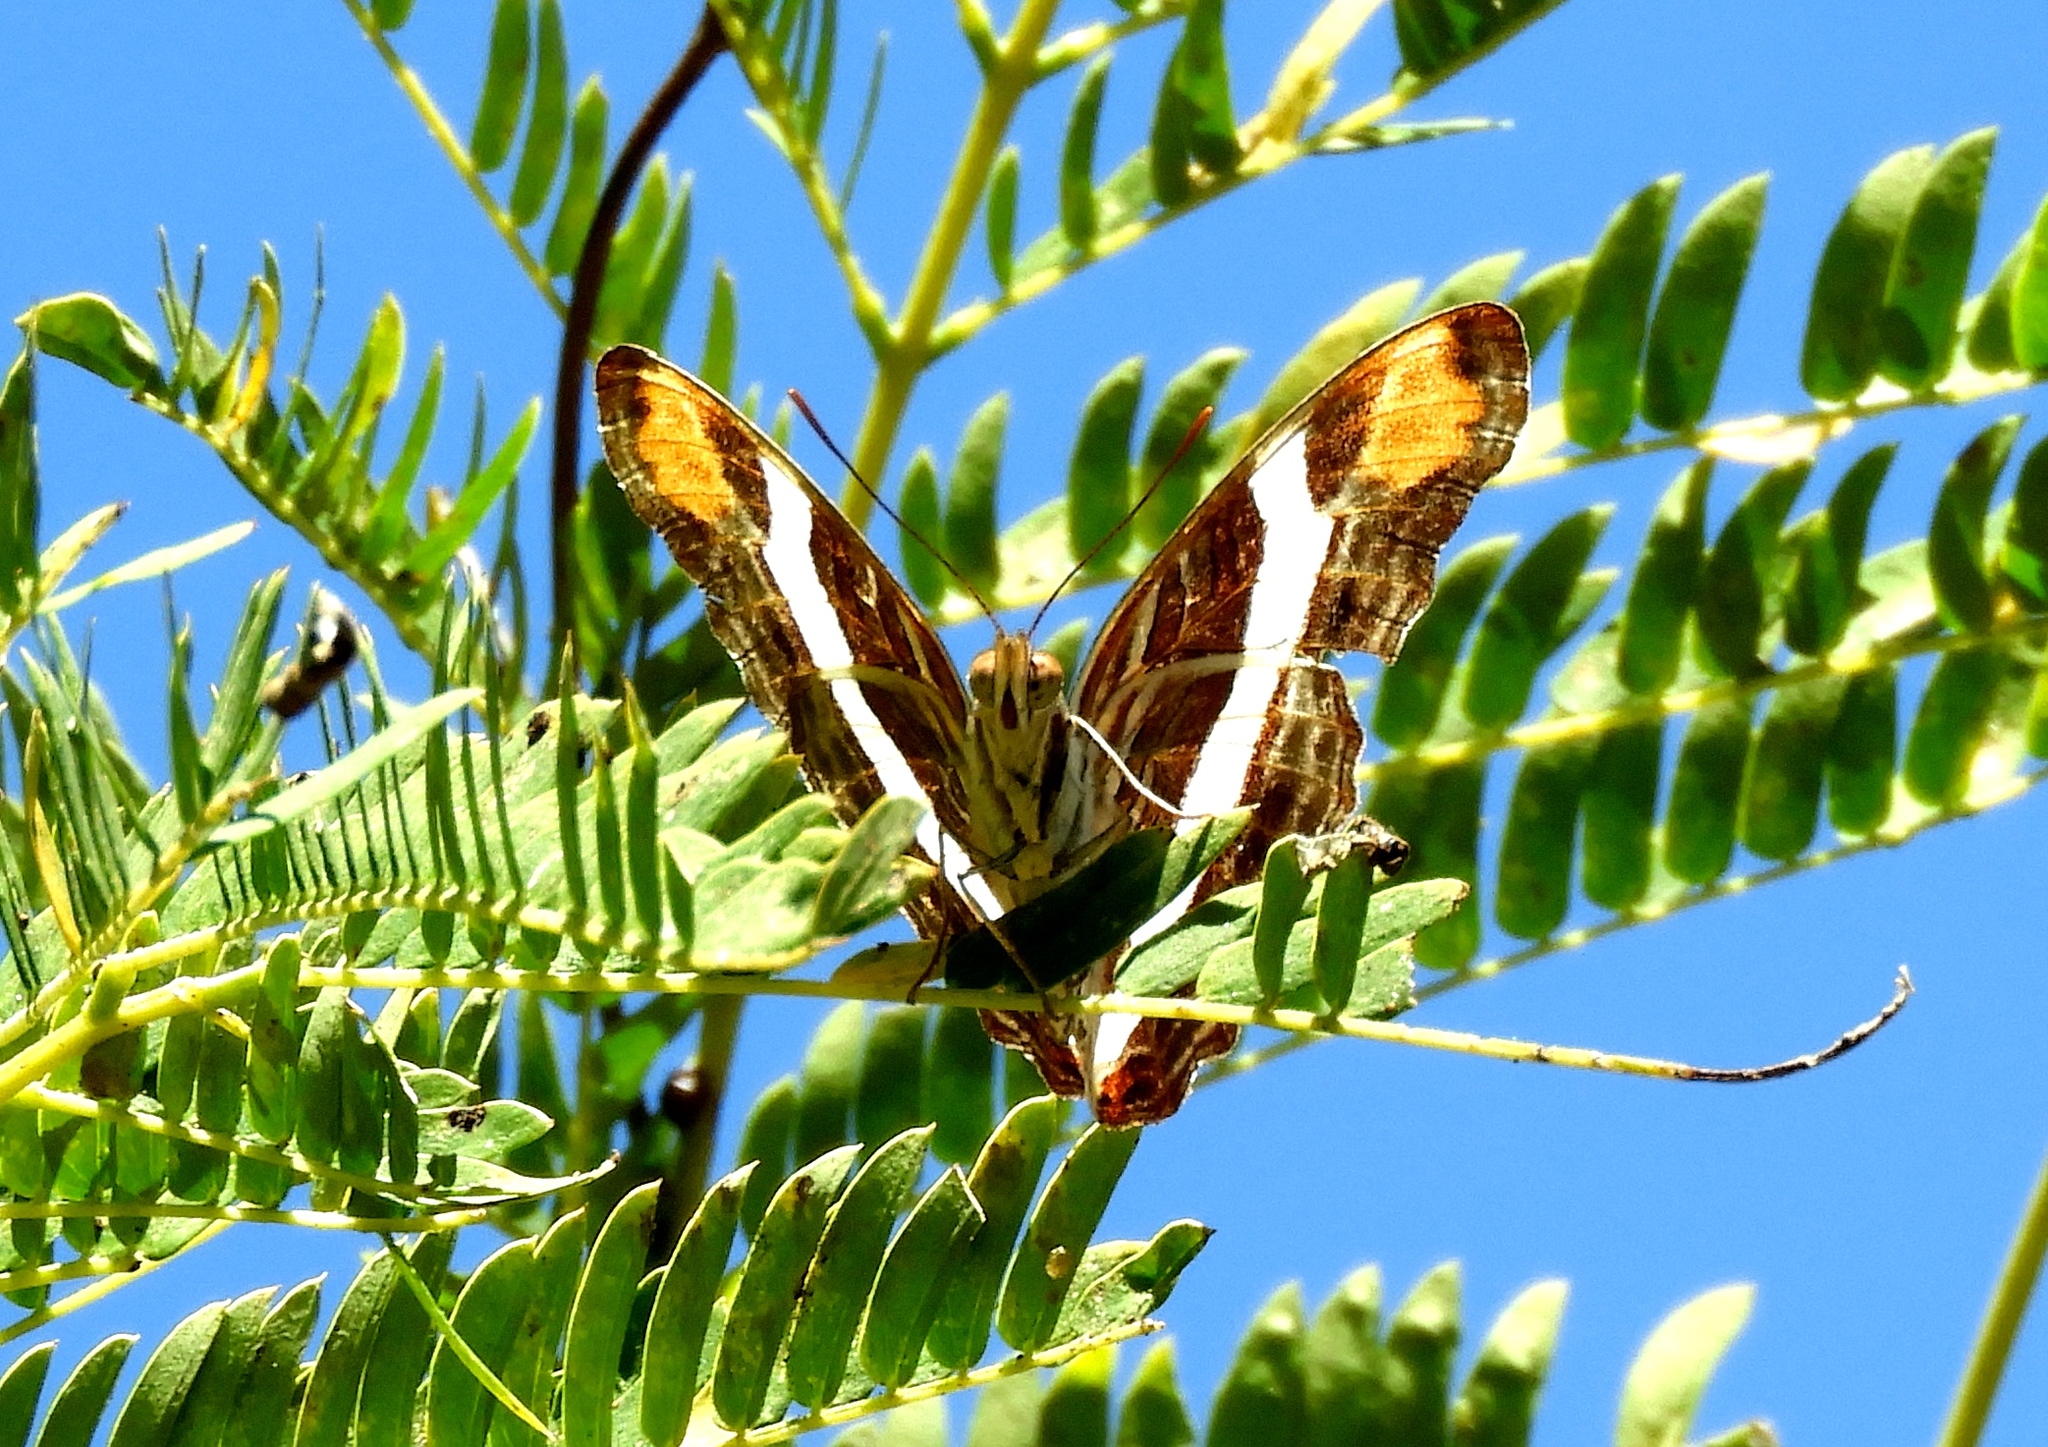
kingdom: Animalia
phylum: Arthropoda
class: Insecta
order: Lepidoptera
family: Nymphalidae
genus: Limenitis
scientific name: Limenitis fessonia
